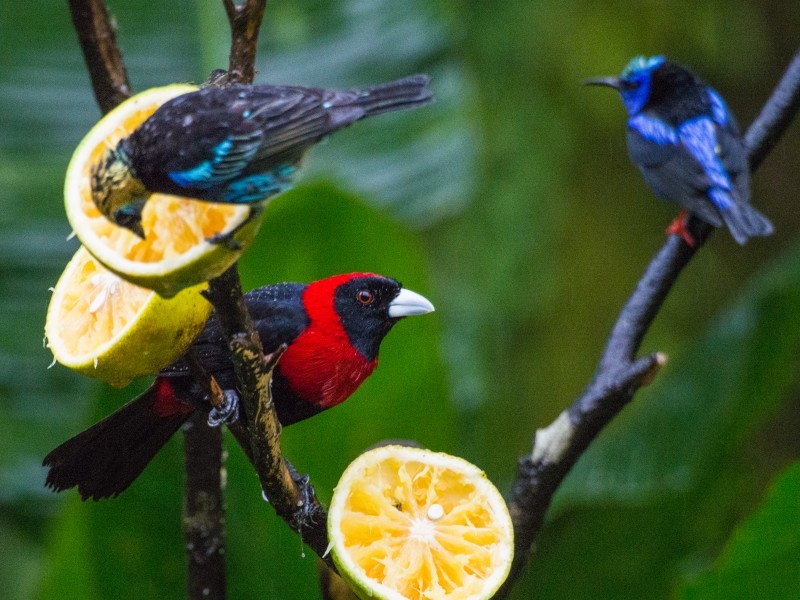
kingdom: Animalia
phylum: Chordata
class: Aves
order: Passeriformes
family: Thraupidae
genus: Ramphocelus
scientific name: Ramphocelus sanguinolentus
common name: Crimson-collared tanager
